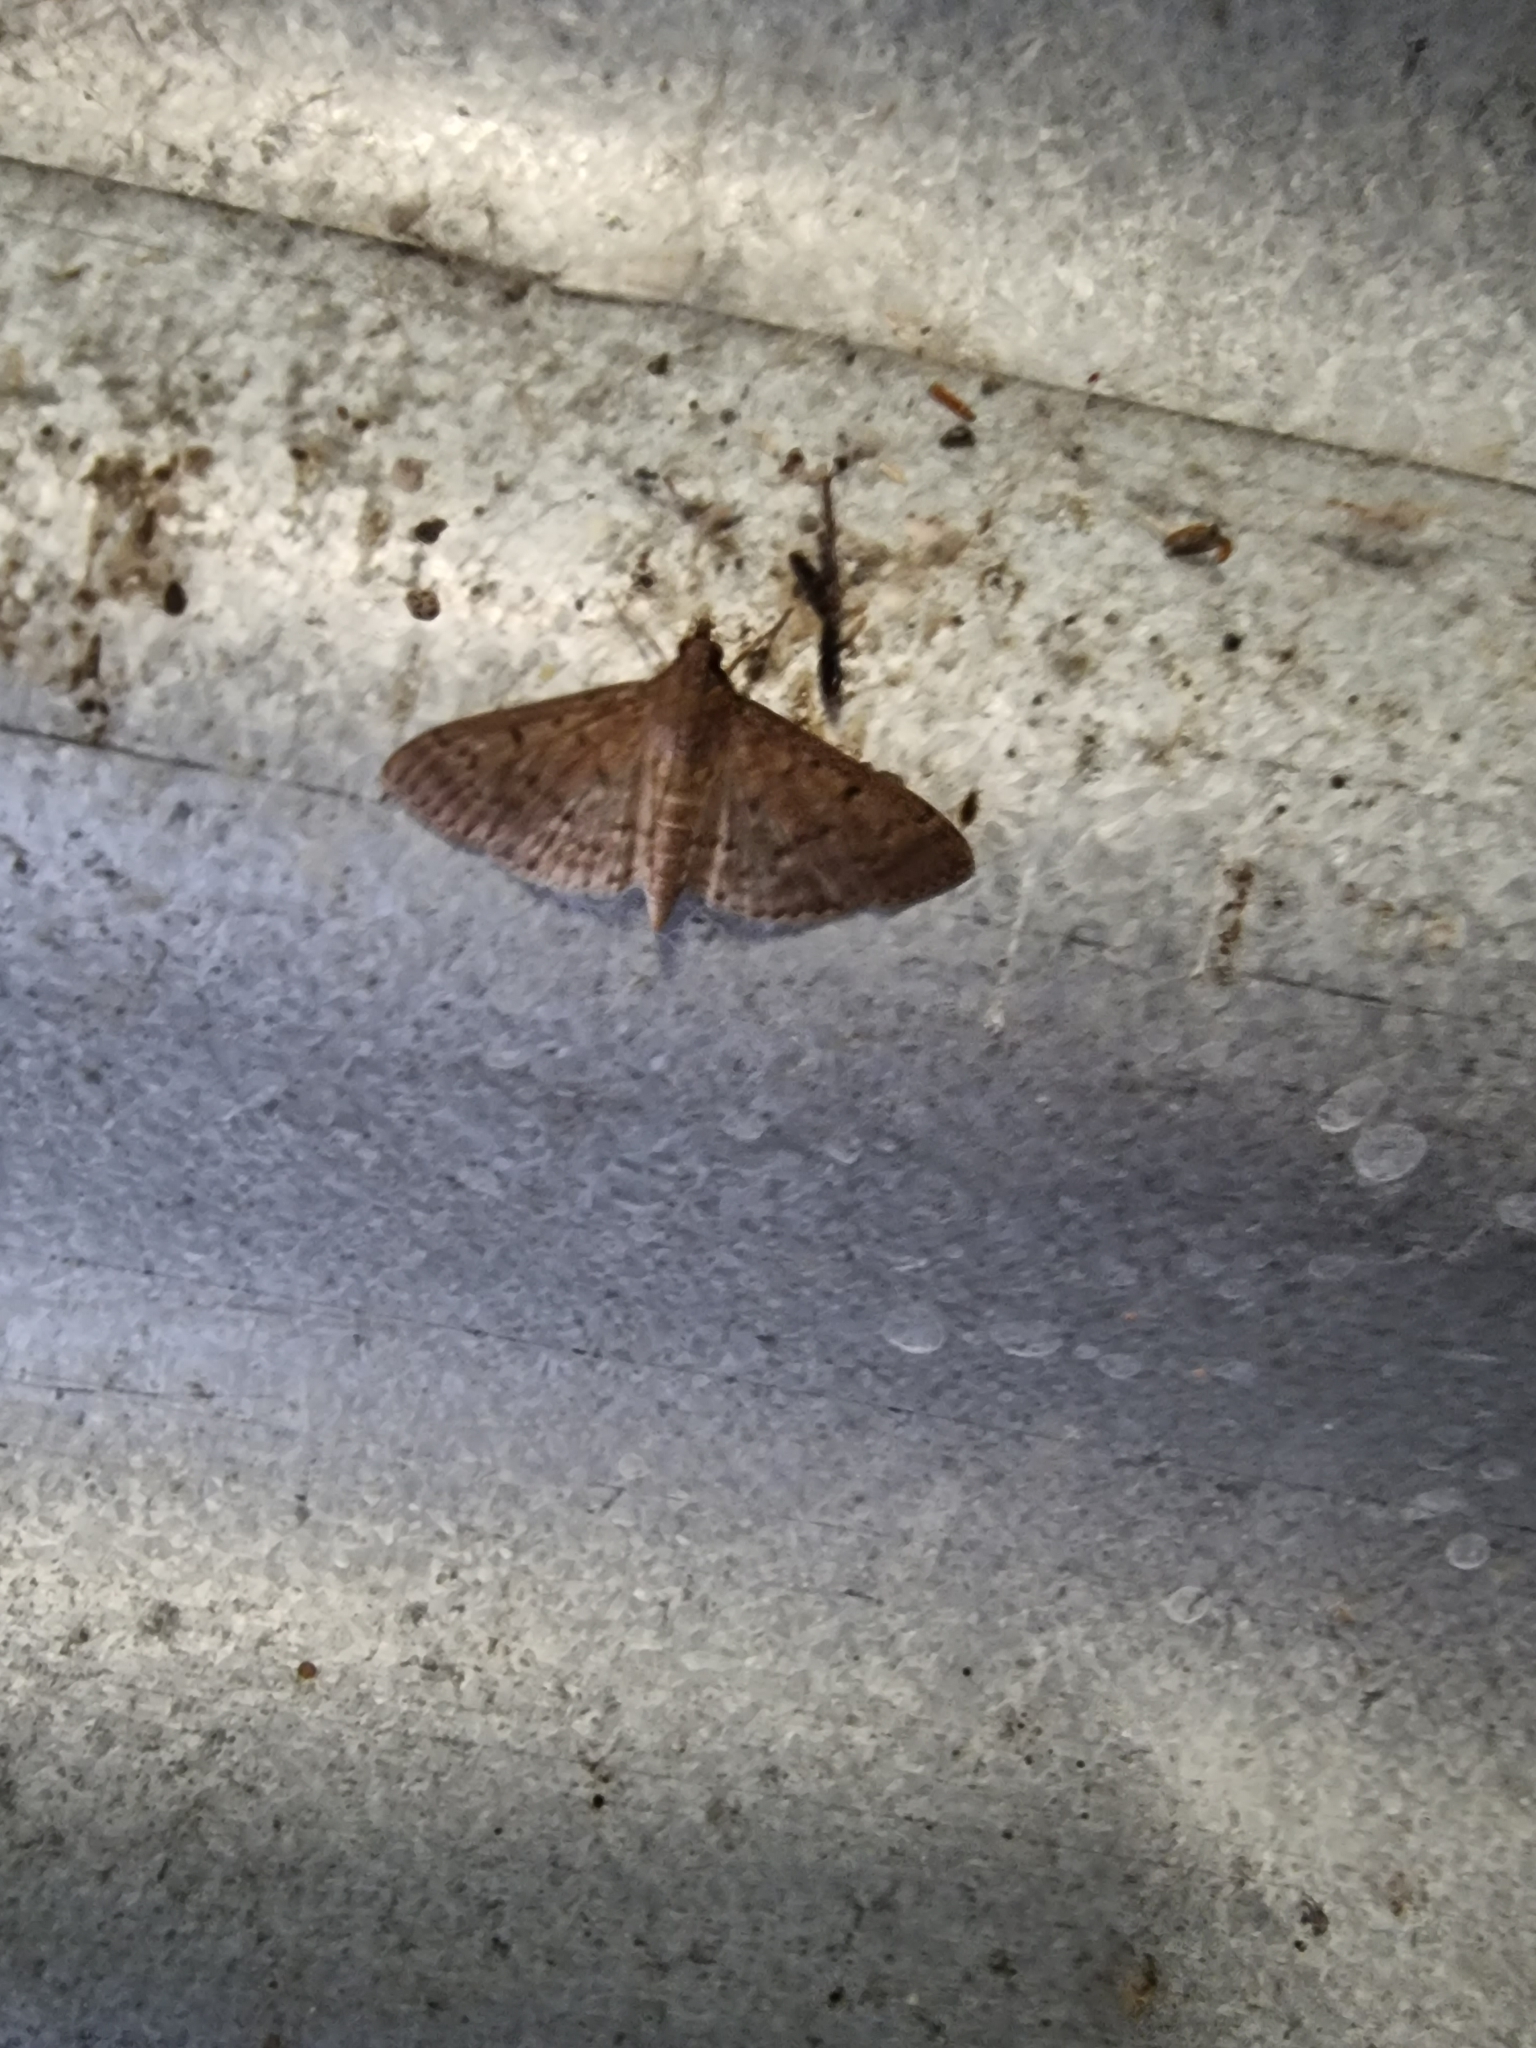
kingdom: Animalia
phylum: Arthropoda
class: Insecta
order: Lepidoptera
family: Crambidae
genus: Herpetogramma
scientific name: Herpetogramma licarsisalis
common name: Grass webworm
